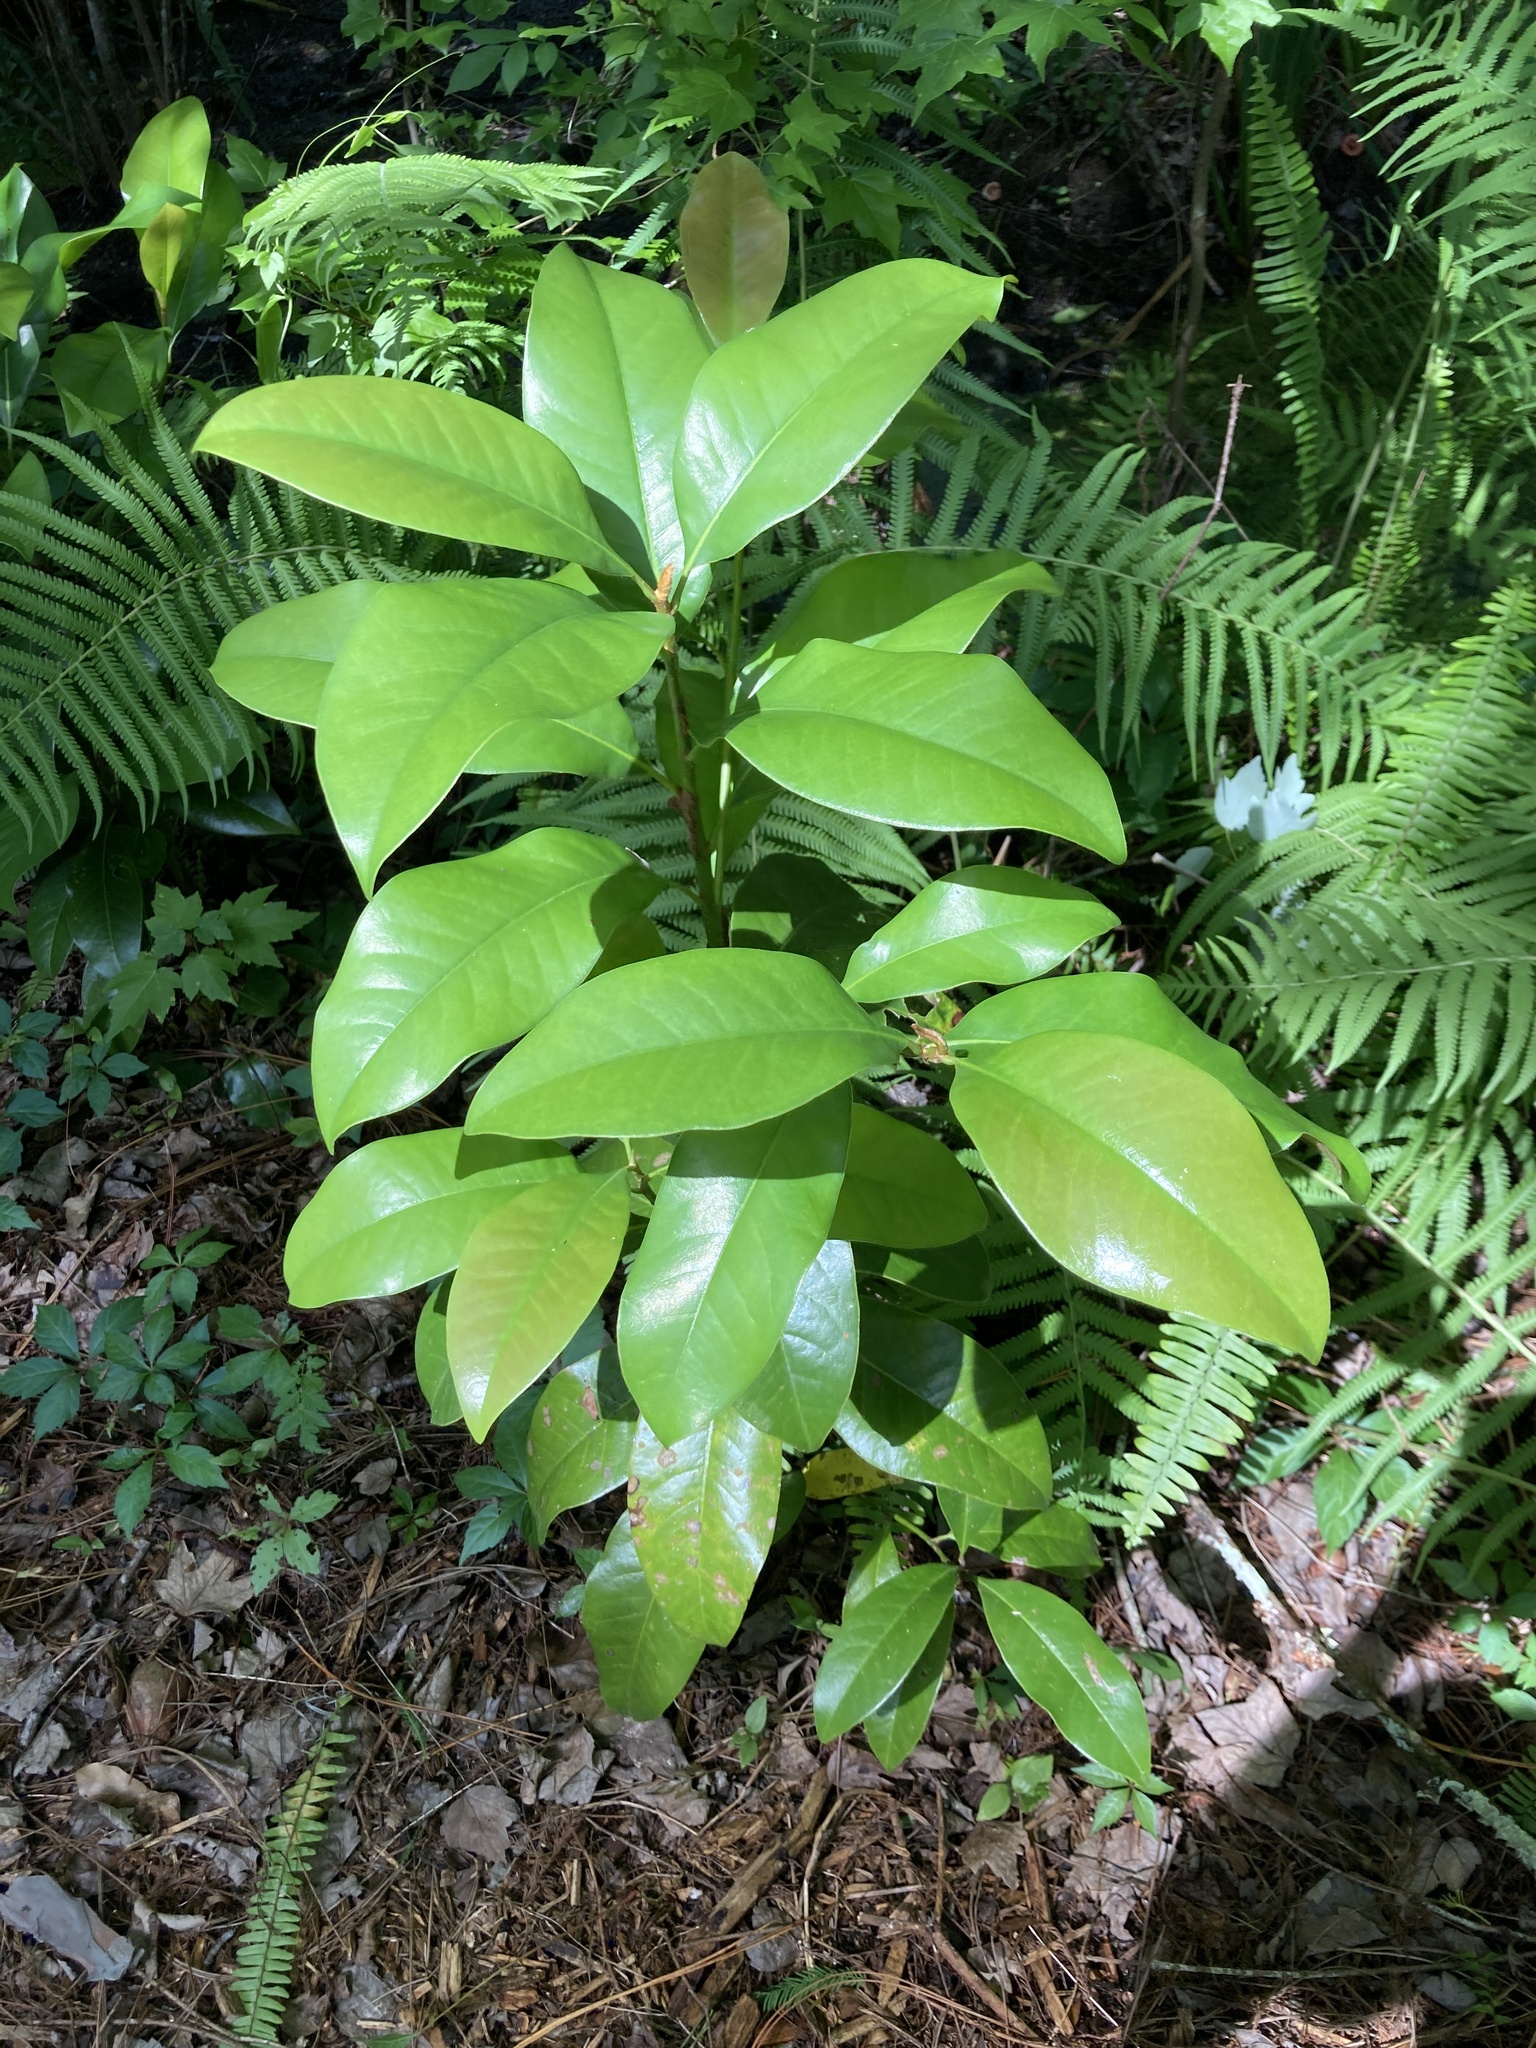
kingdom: Plantae
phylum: Tracheophyta
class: Magnoliopsida
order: Magnoliales
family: Magnoliaceae
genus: Magnolia
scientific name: Magnolia grandiflora
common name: Southern magnolia
